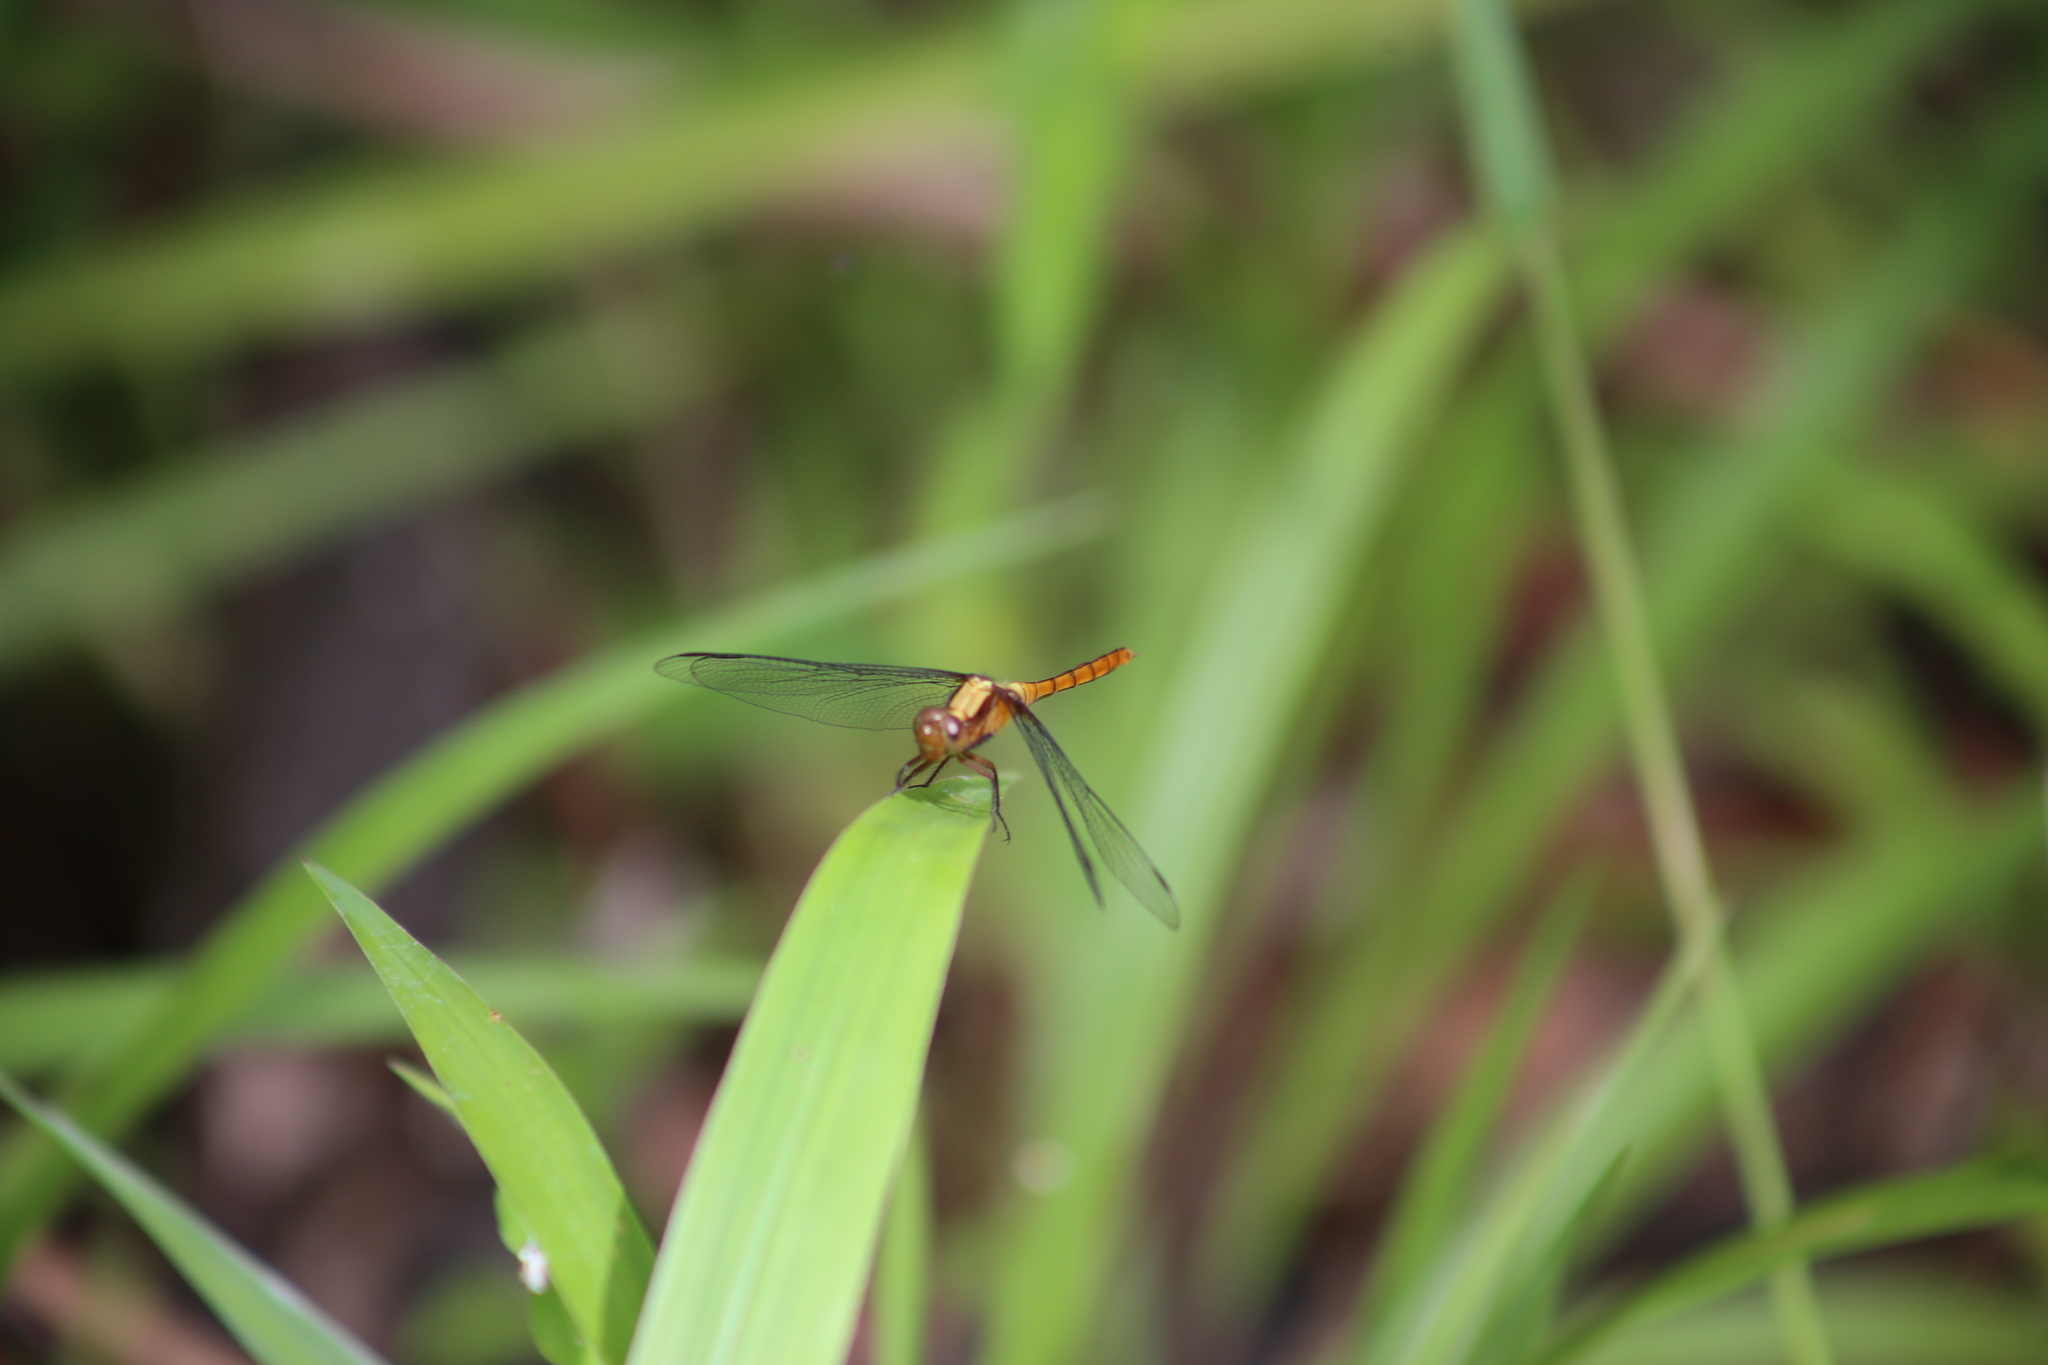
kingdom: Animalia
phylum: Arthropoda
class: Insecta
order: Odonata
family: Libellulidae
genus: Orthetrum
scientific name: Orthetrum villosovittatum
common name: Firery skimmer
